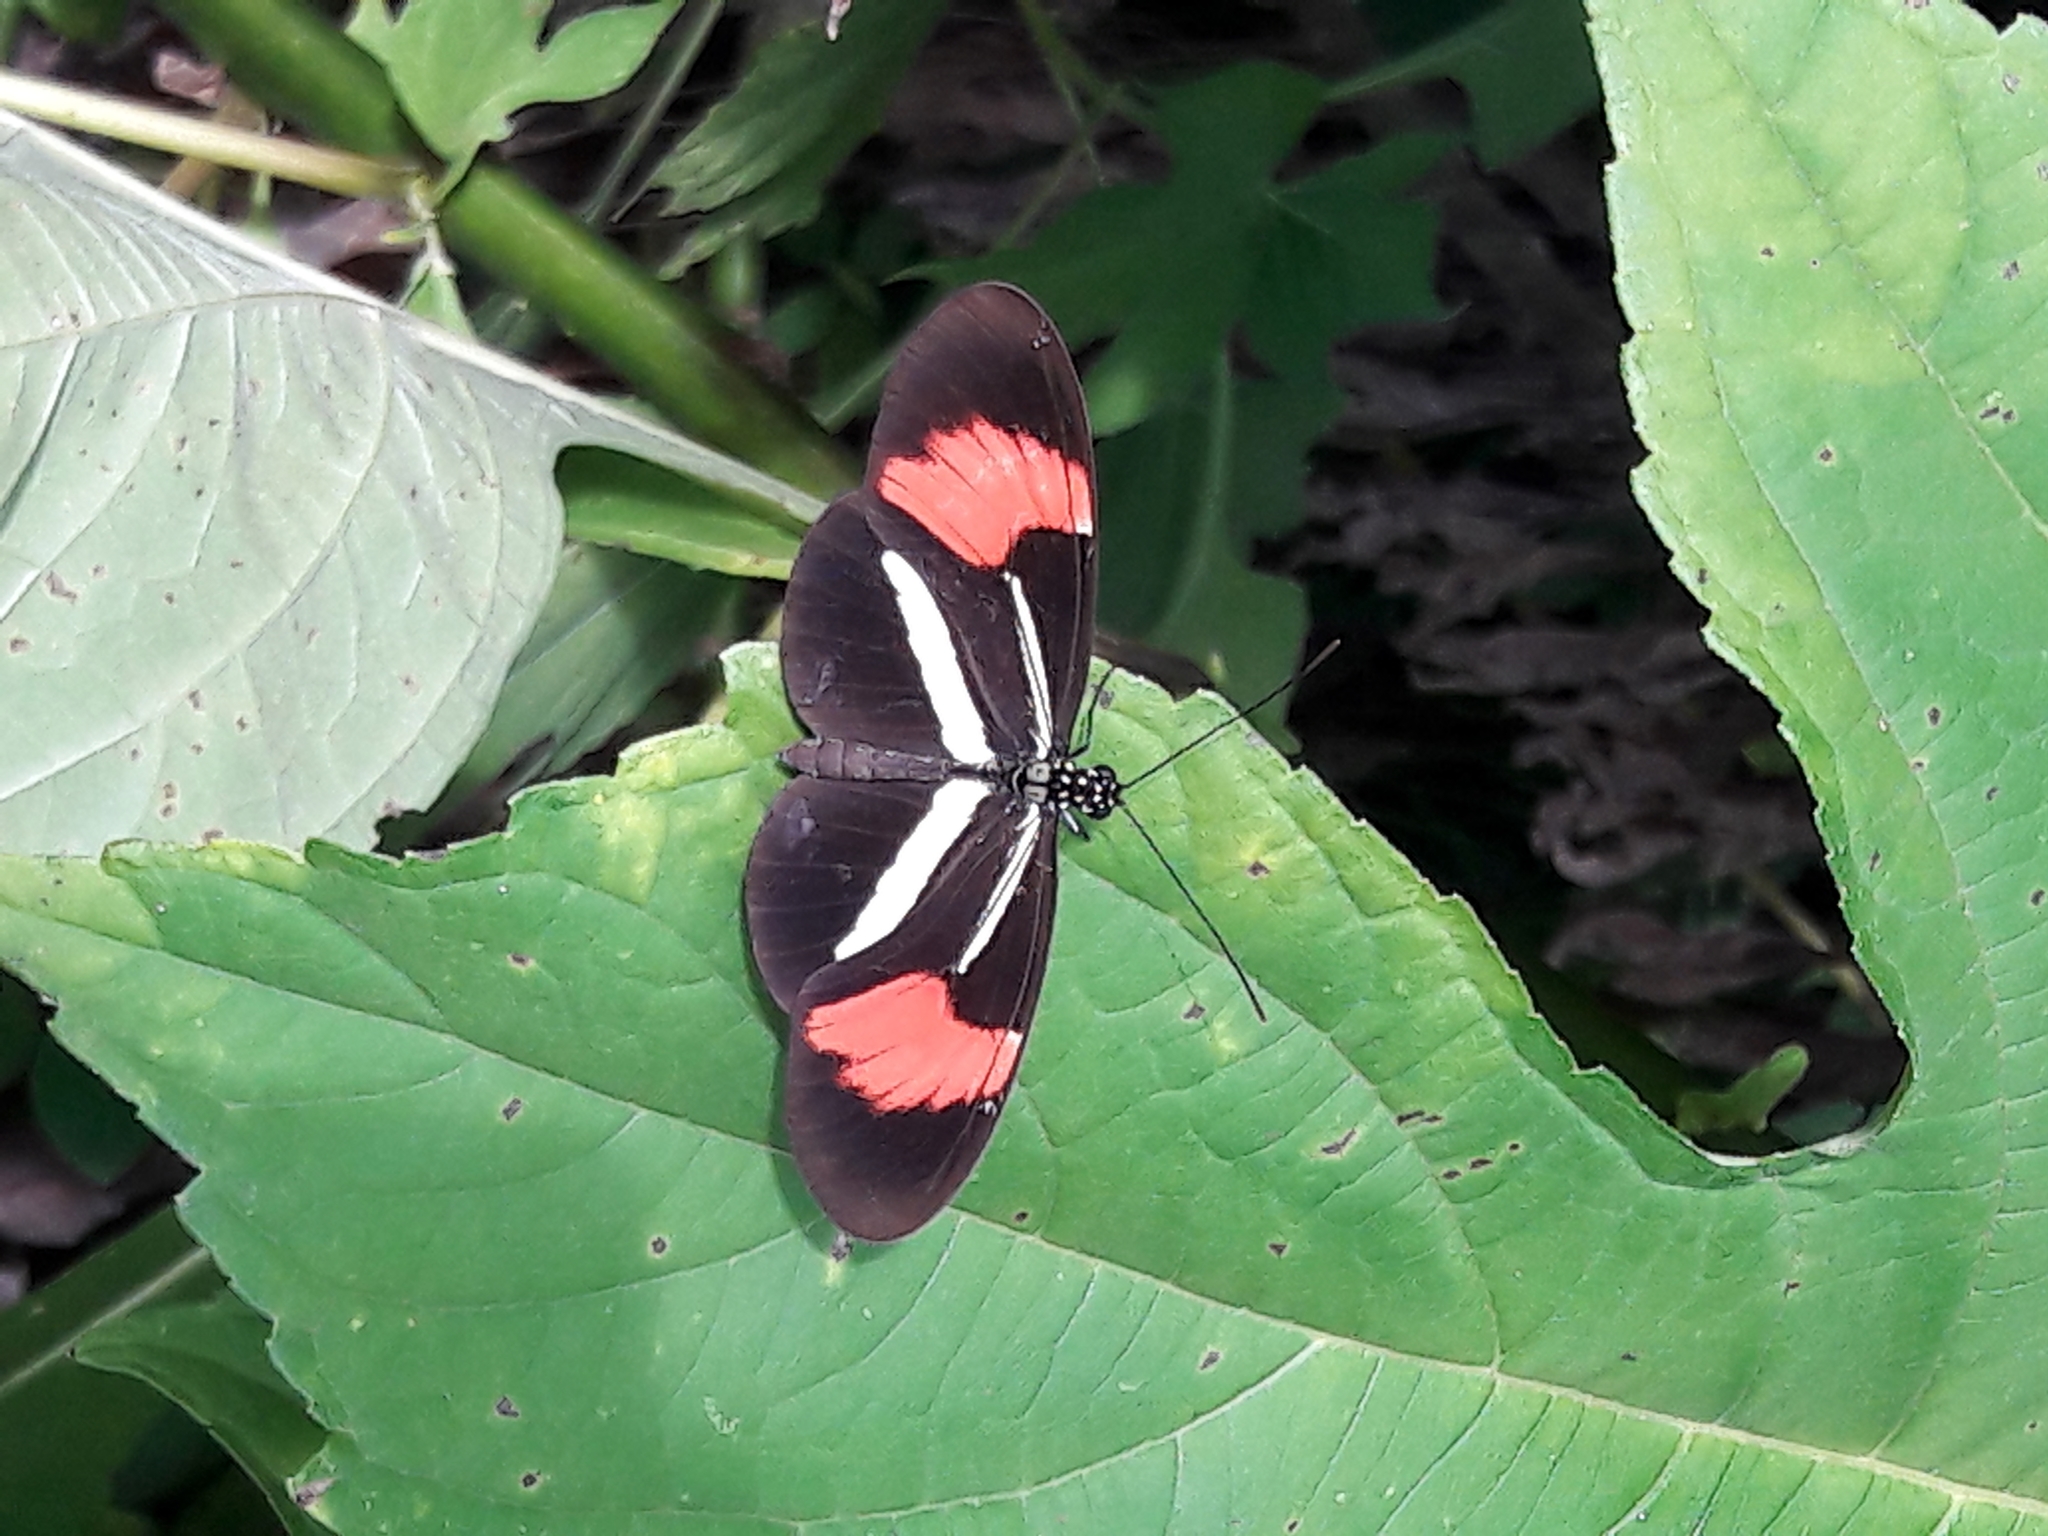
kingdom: Animalia
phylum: Arthropoda
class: Insecta
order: Lepidoptera
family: Nymphalidae
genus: Heliconius
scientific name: Heliconius erato
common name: Common patch longwing
